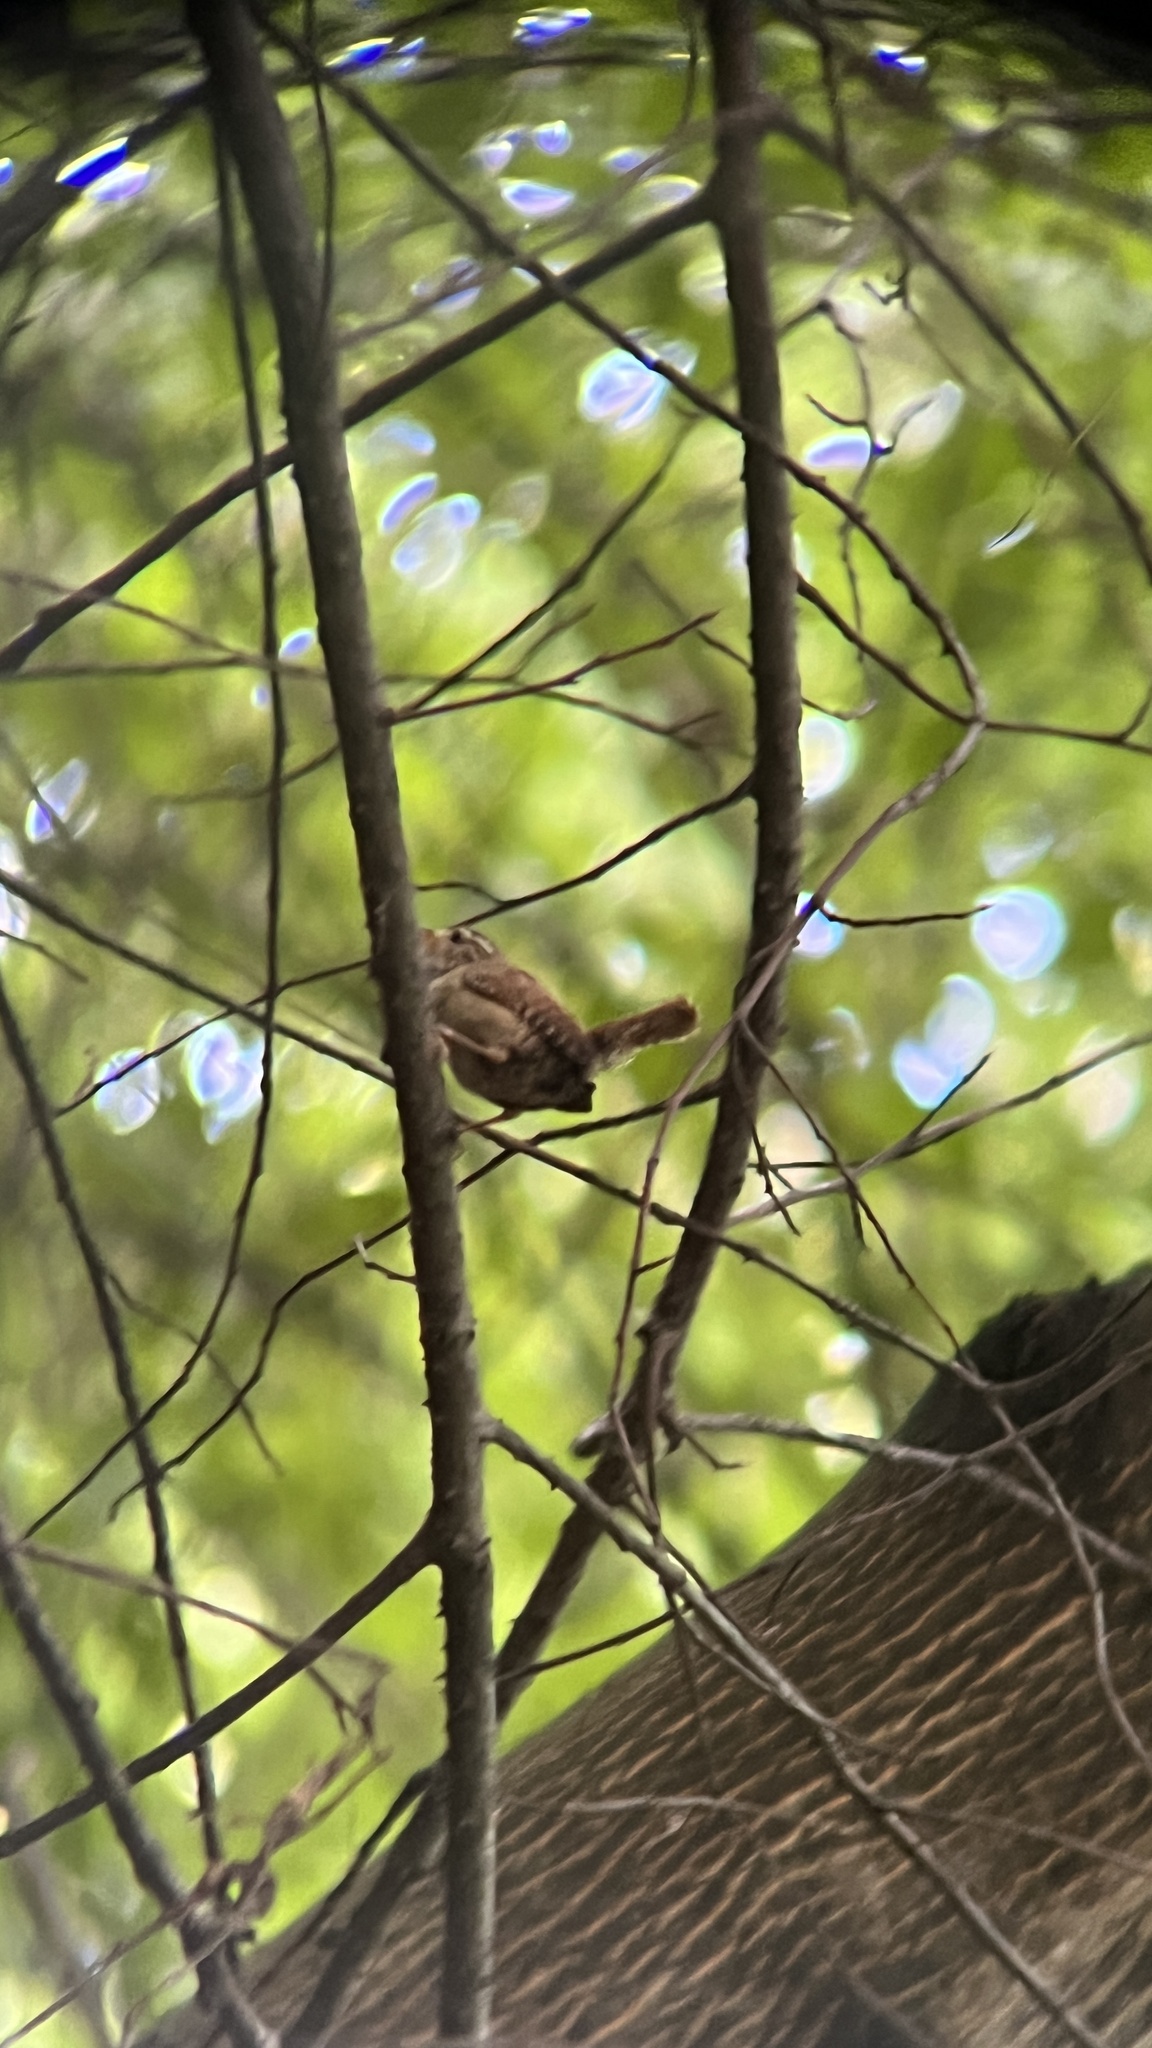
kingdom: Animalia
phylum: Chordata
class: Aves
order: Passeriformes
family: Troglodytidae
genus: Troglodytes
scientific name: Troglodytes troglodytes
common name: Eurasian wren
